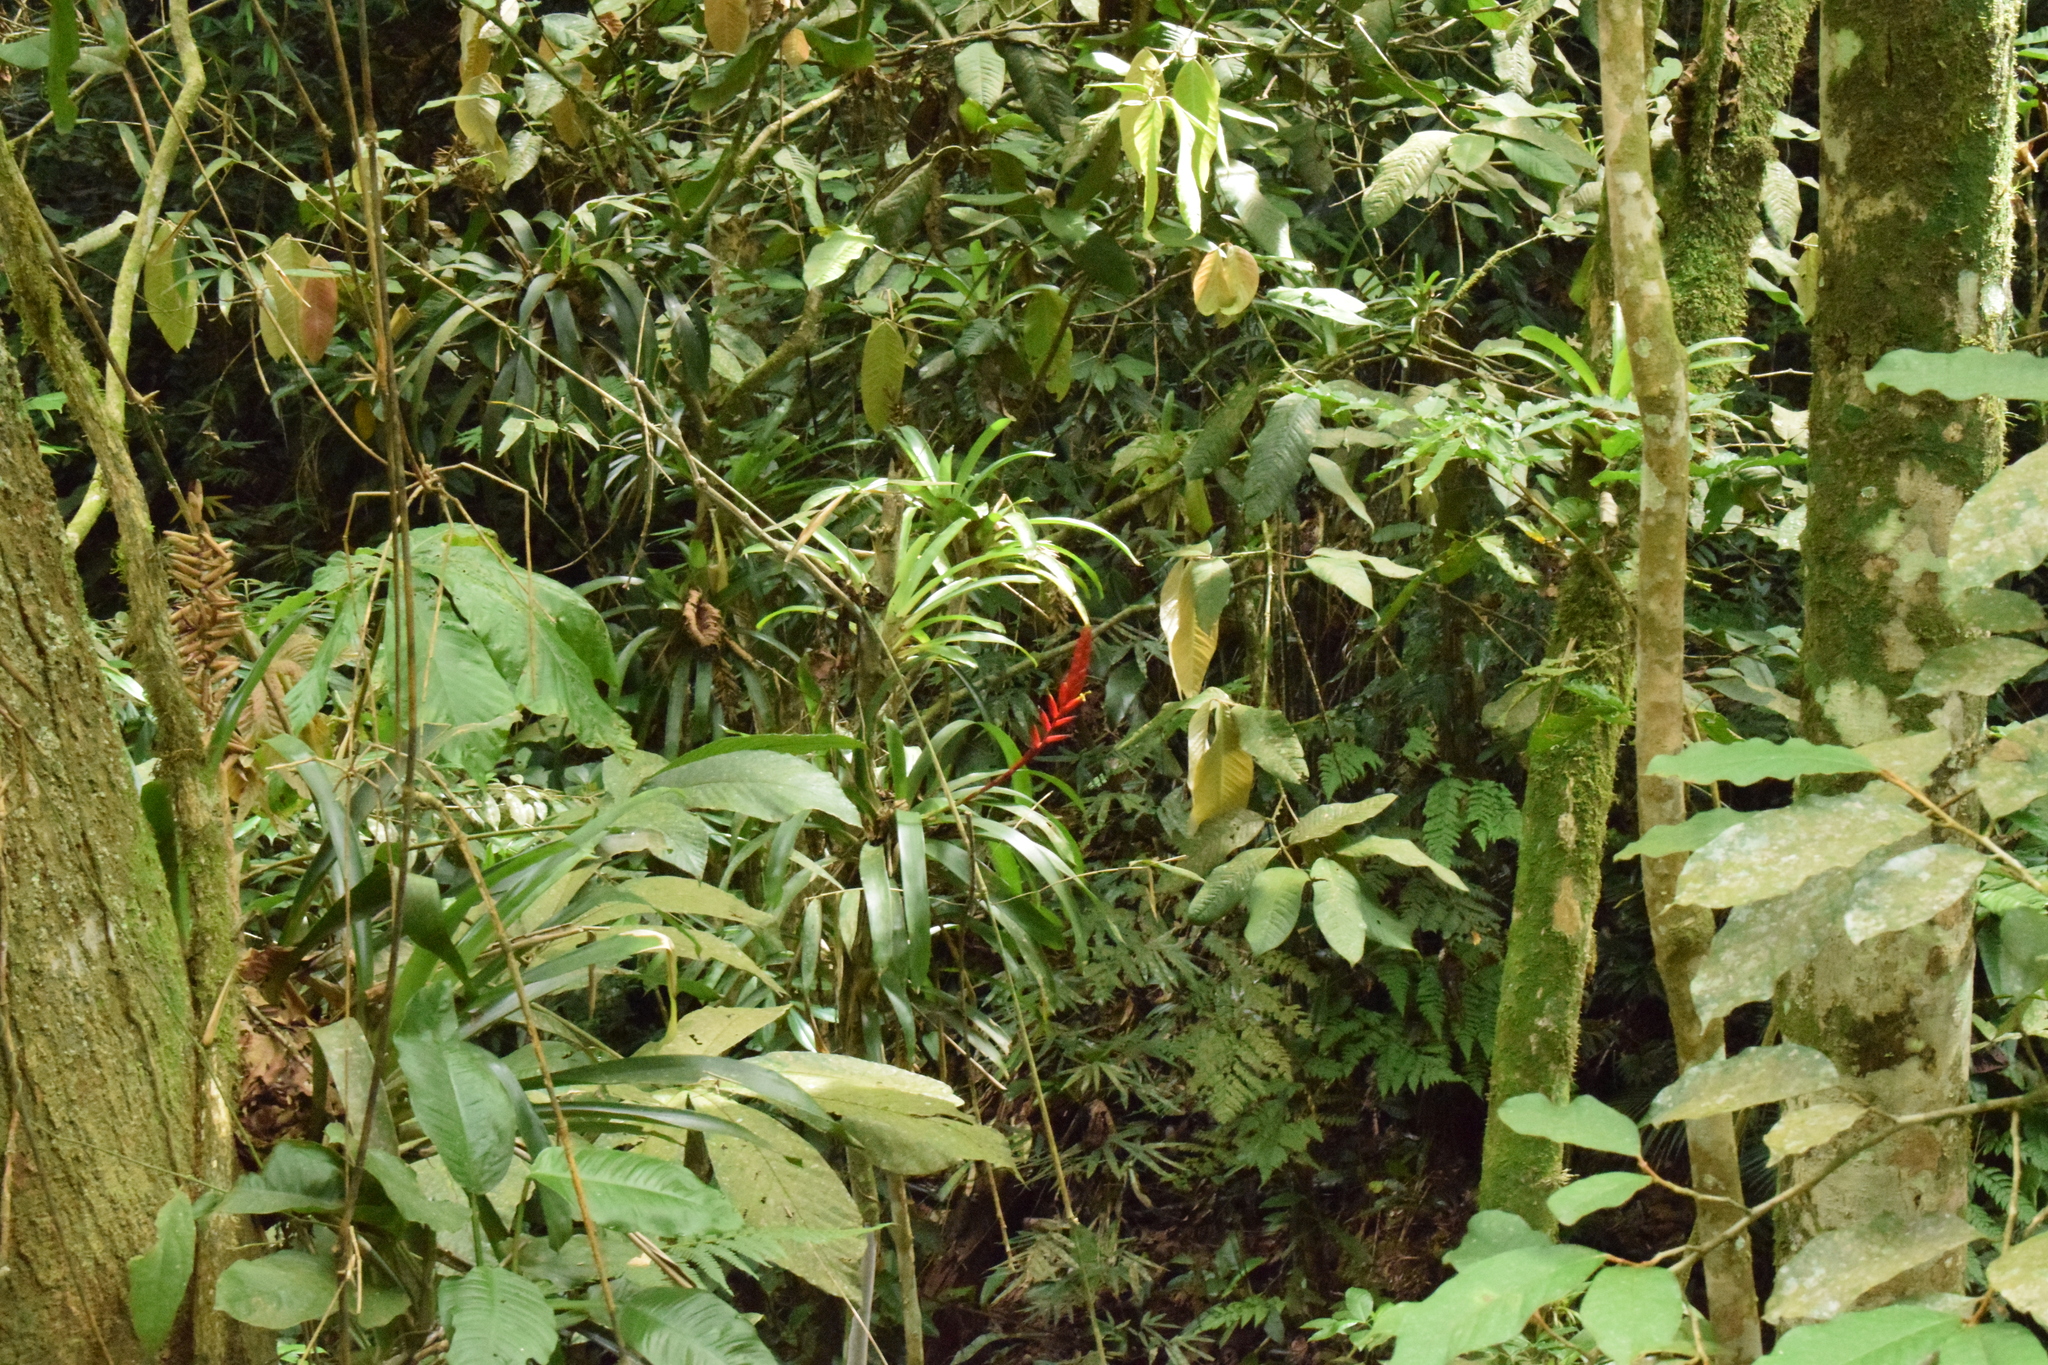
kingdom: Plantae
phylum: Tracheophyta
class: Liliopsida
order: Poales
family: Bromeliaceae
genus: Vriesea
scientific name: Vriesea ensiformis
